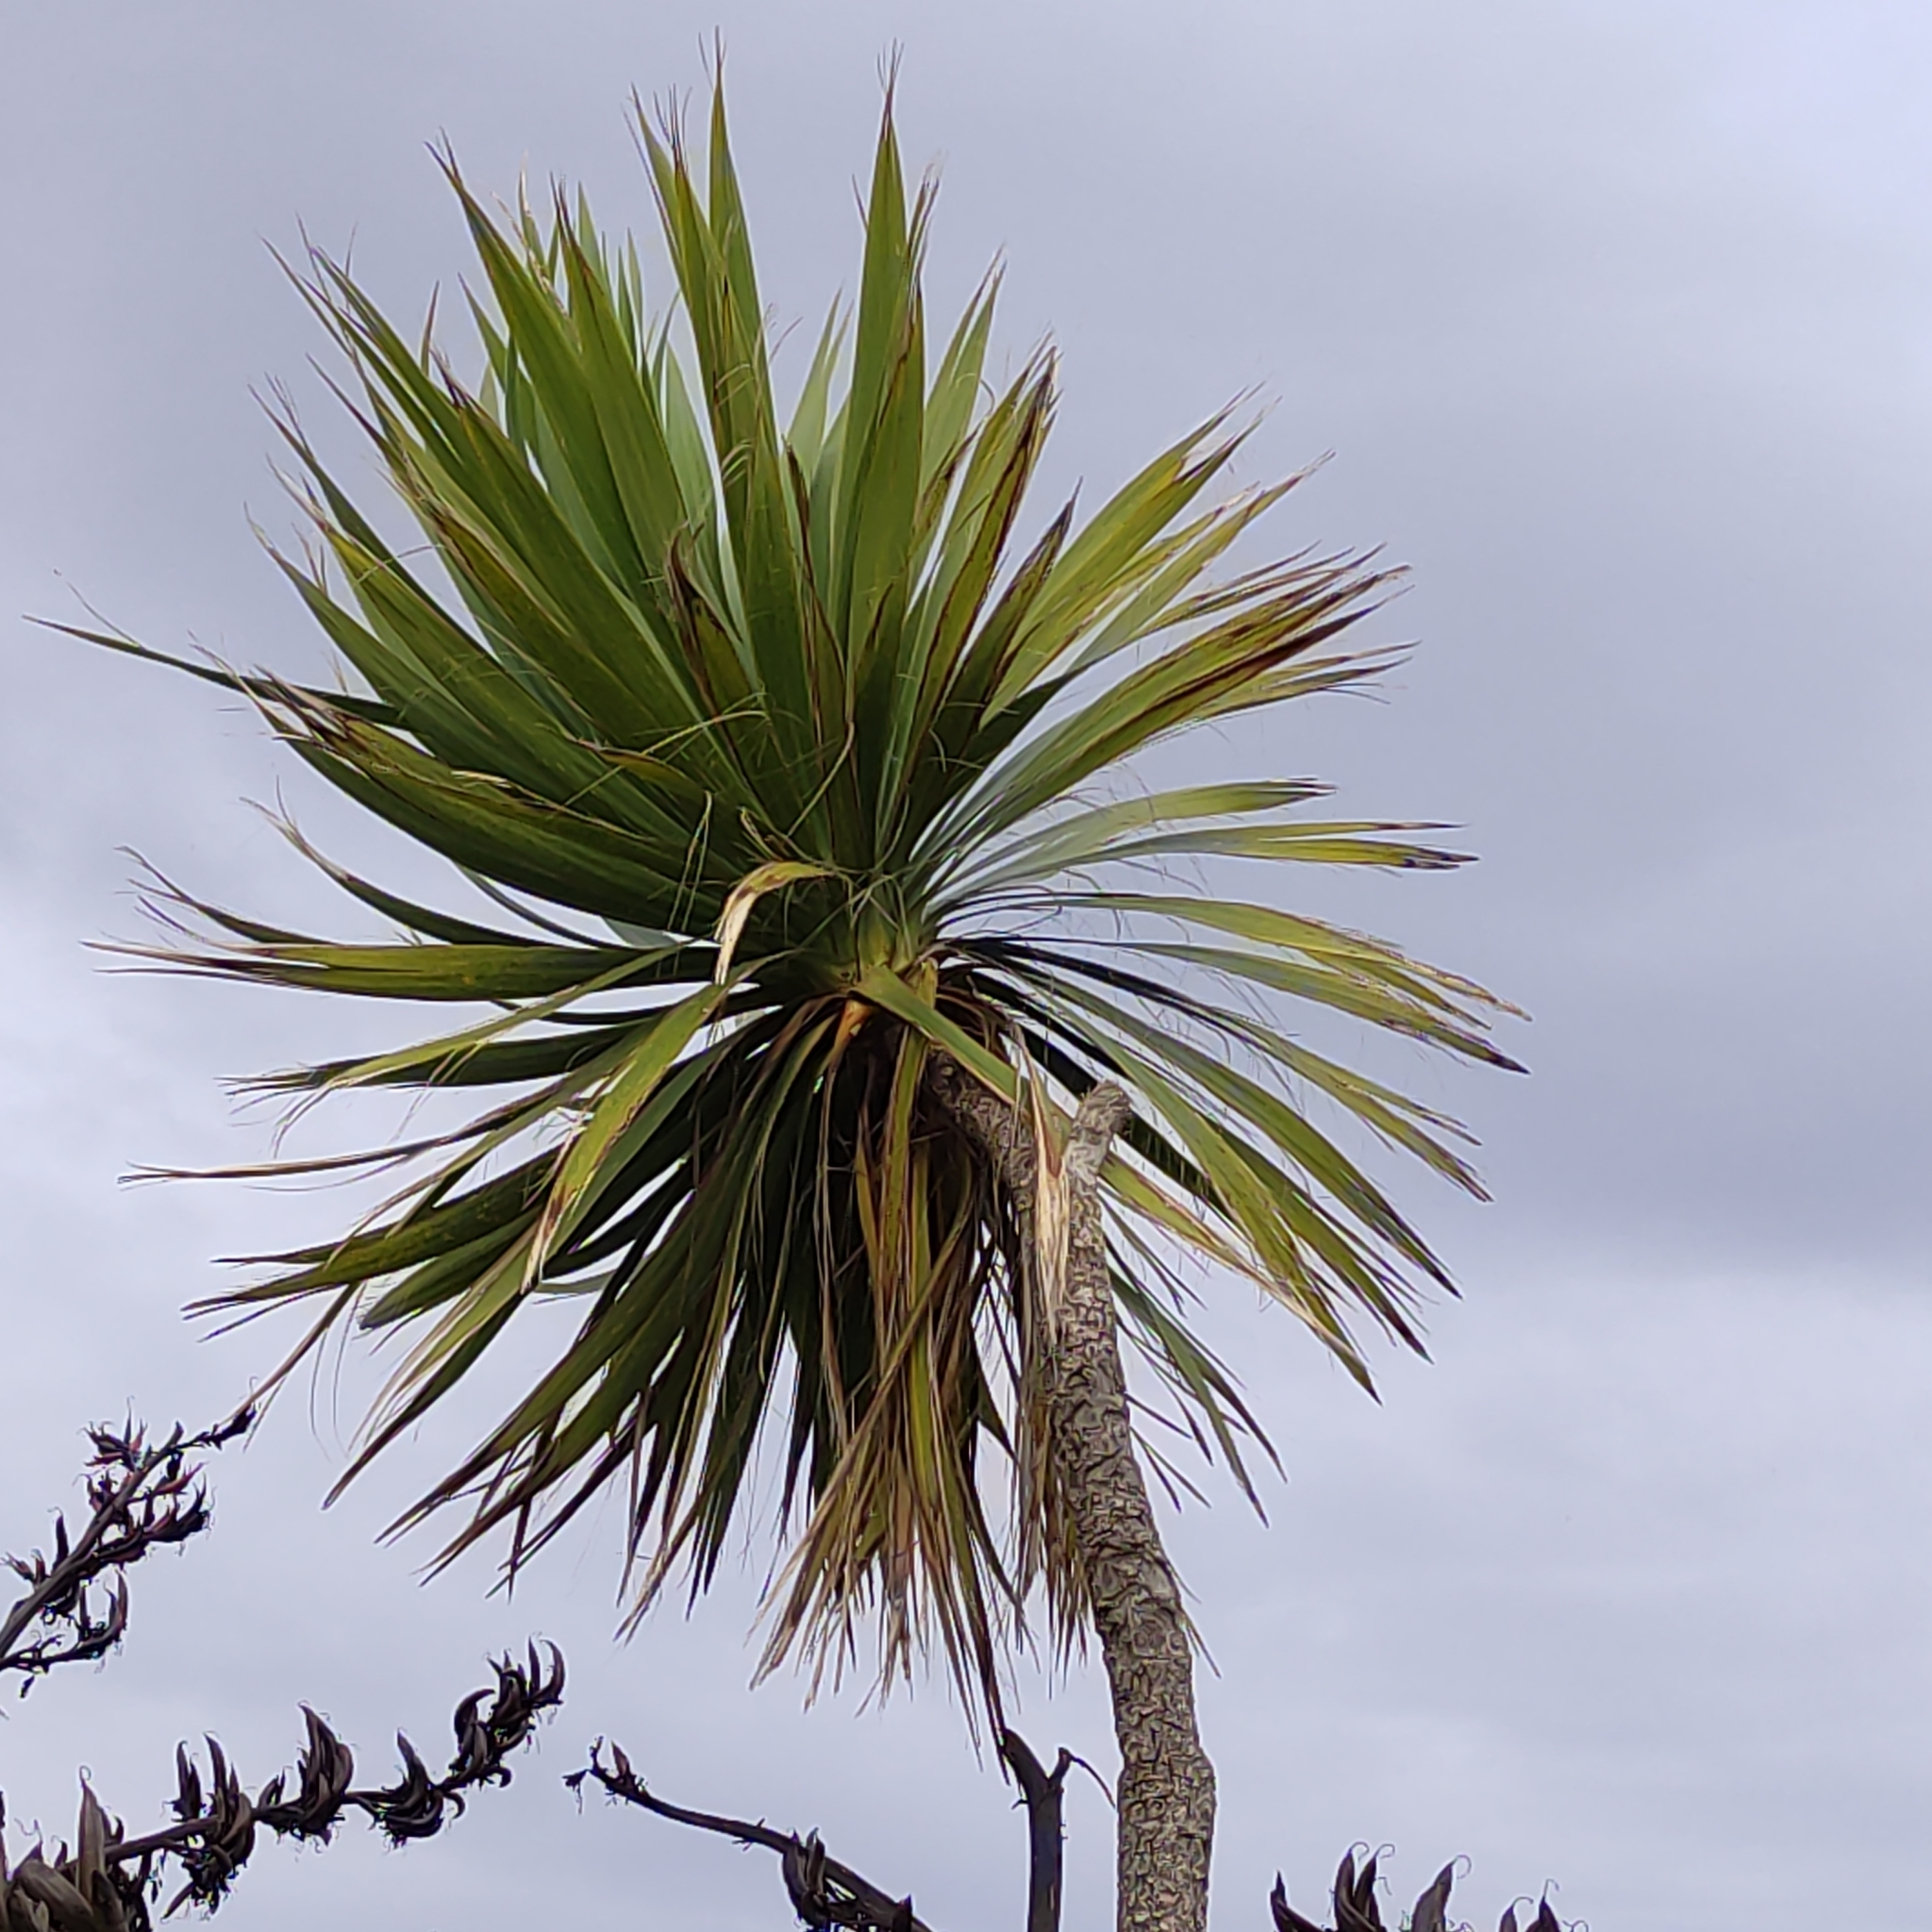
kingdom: Plantae
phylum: Tracheophyta
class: Liliopsida
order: Asparagales
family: Asparagaceae
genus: Cordyline
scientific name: Cordyline australis
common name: Cabbage-palm
